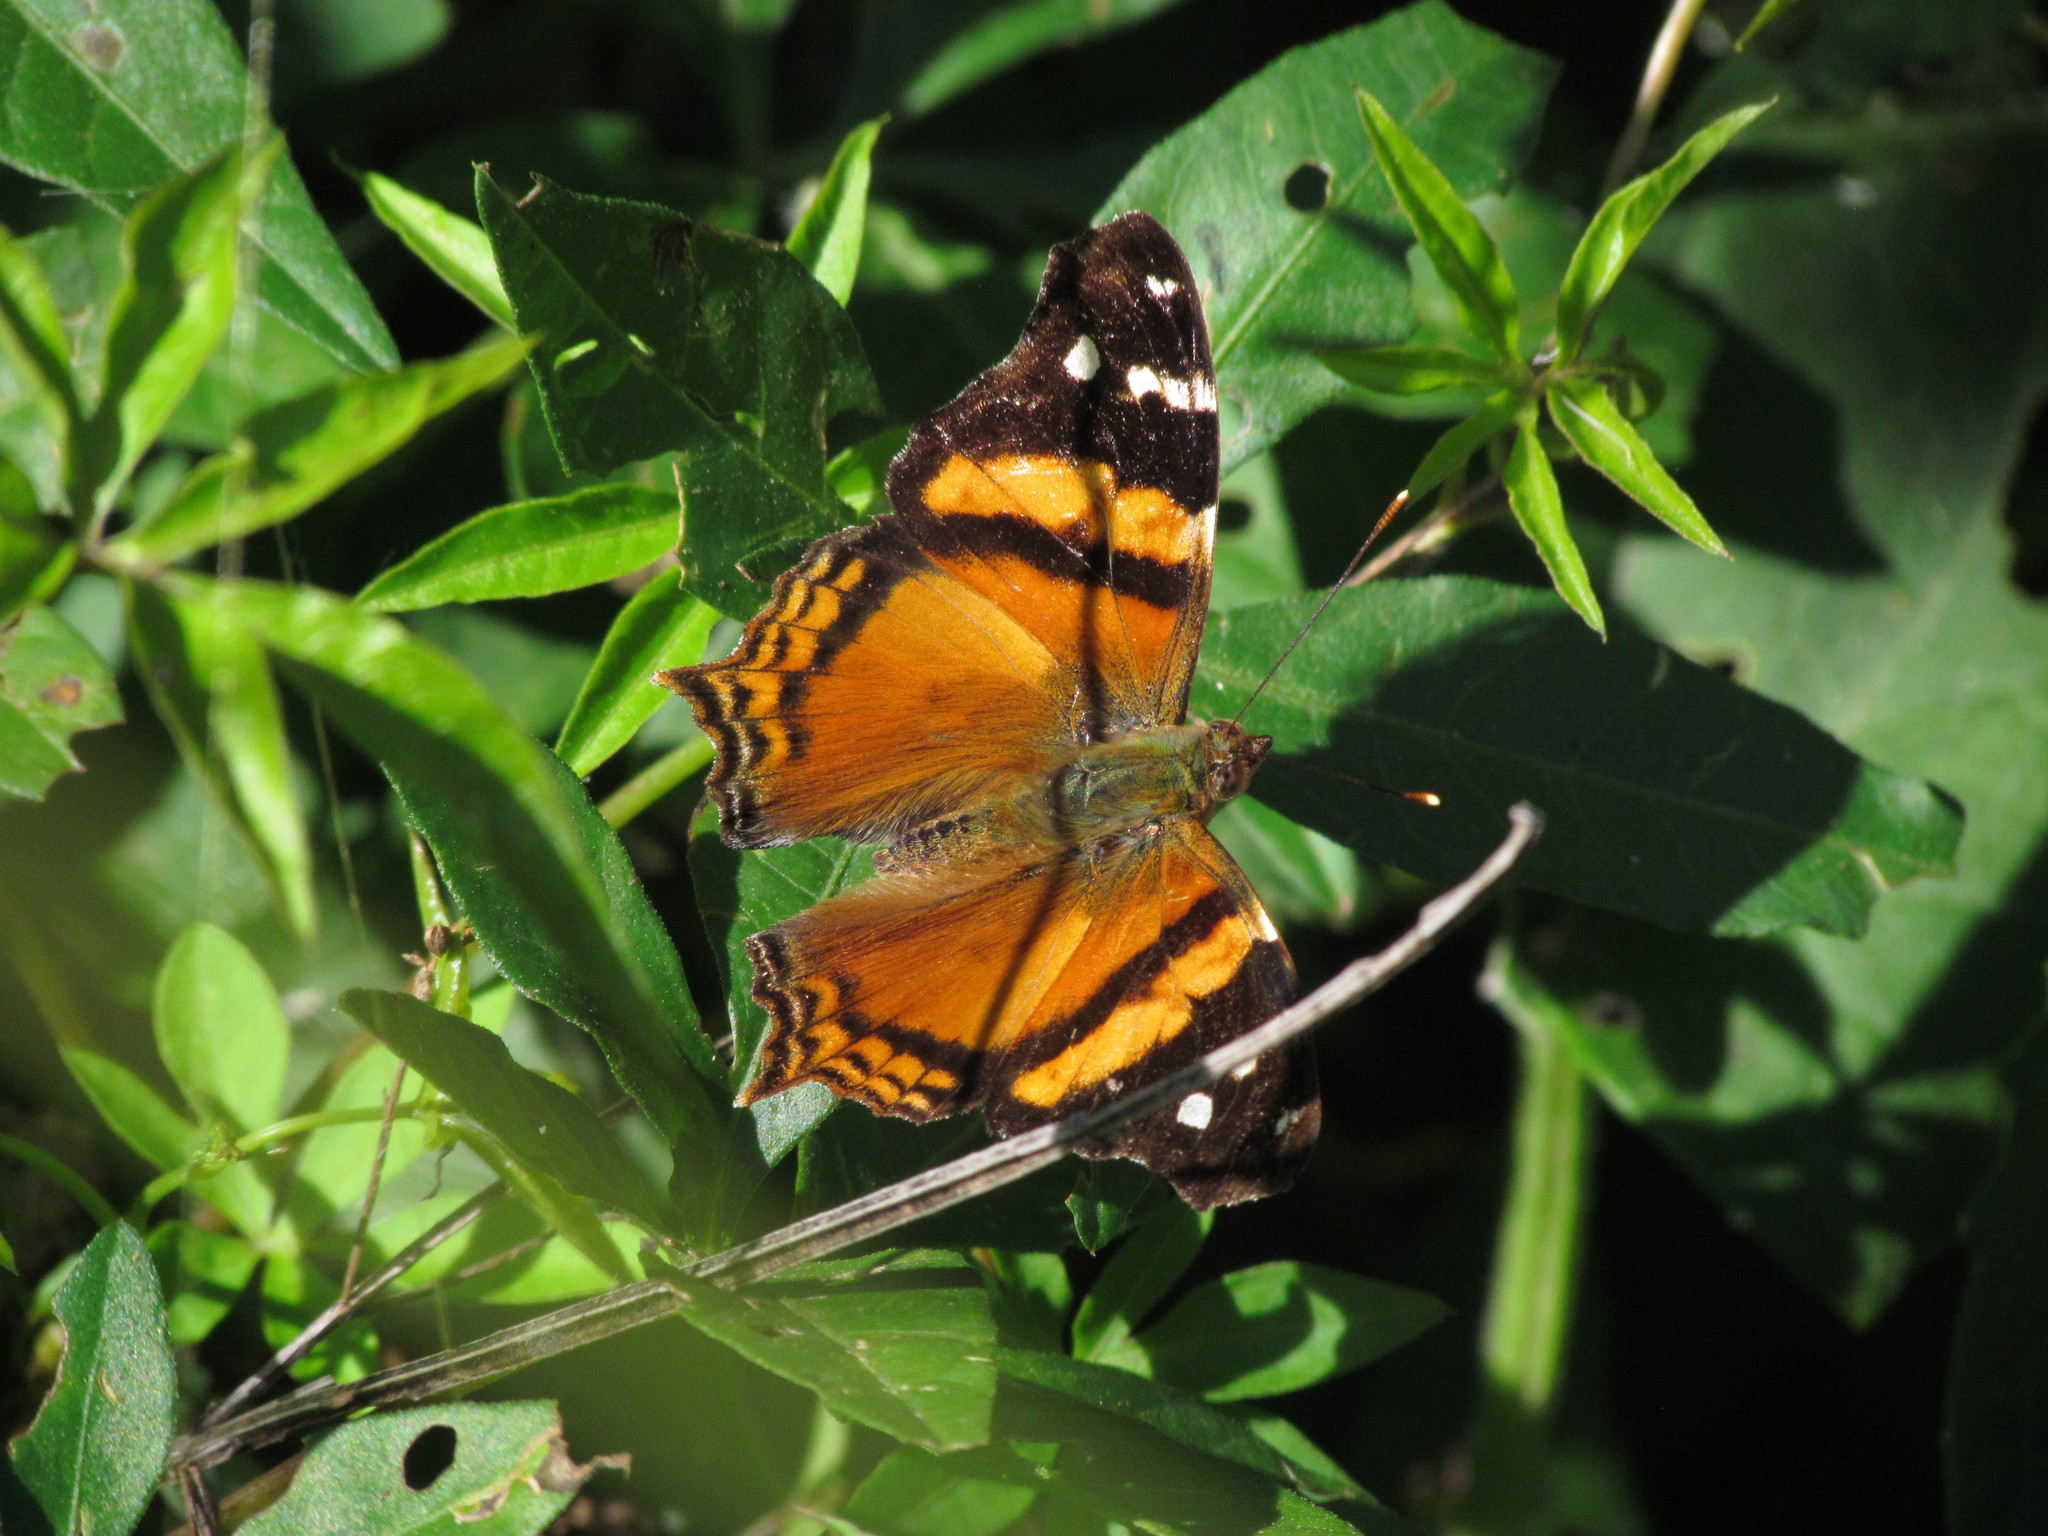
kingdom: Animalia
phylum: Arthropoda
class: Insecta
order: Lepidoptera
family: Nymphalidae
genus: Hypanartia
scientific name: Hypanartia bella
